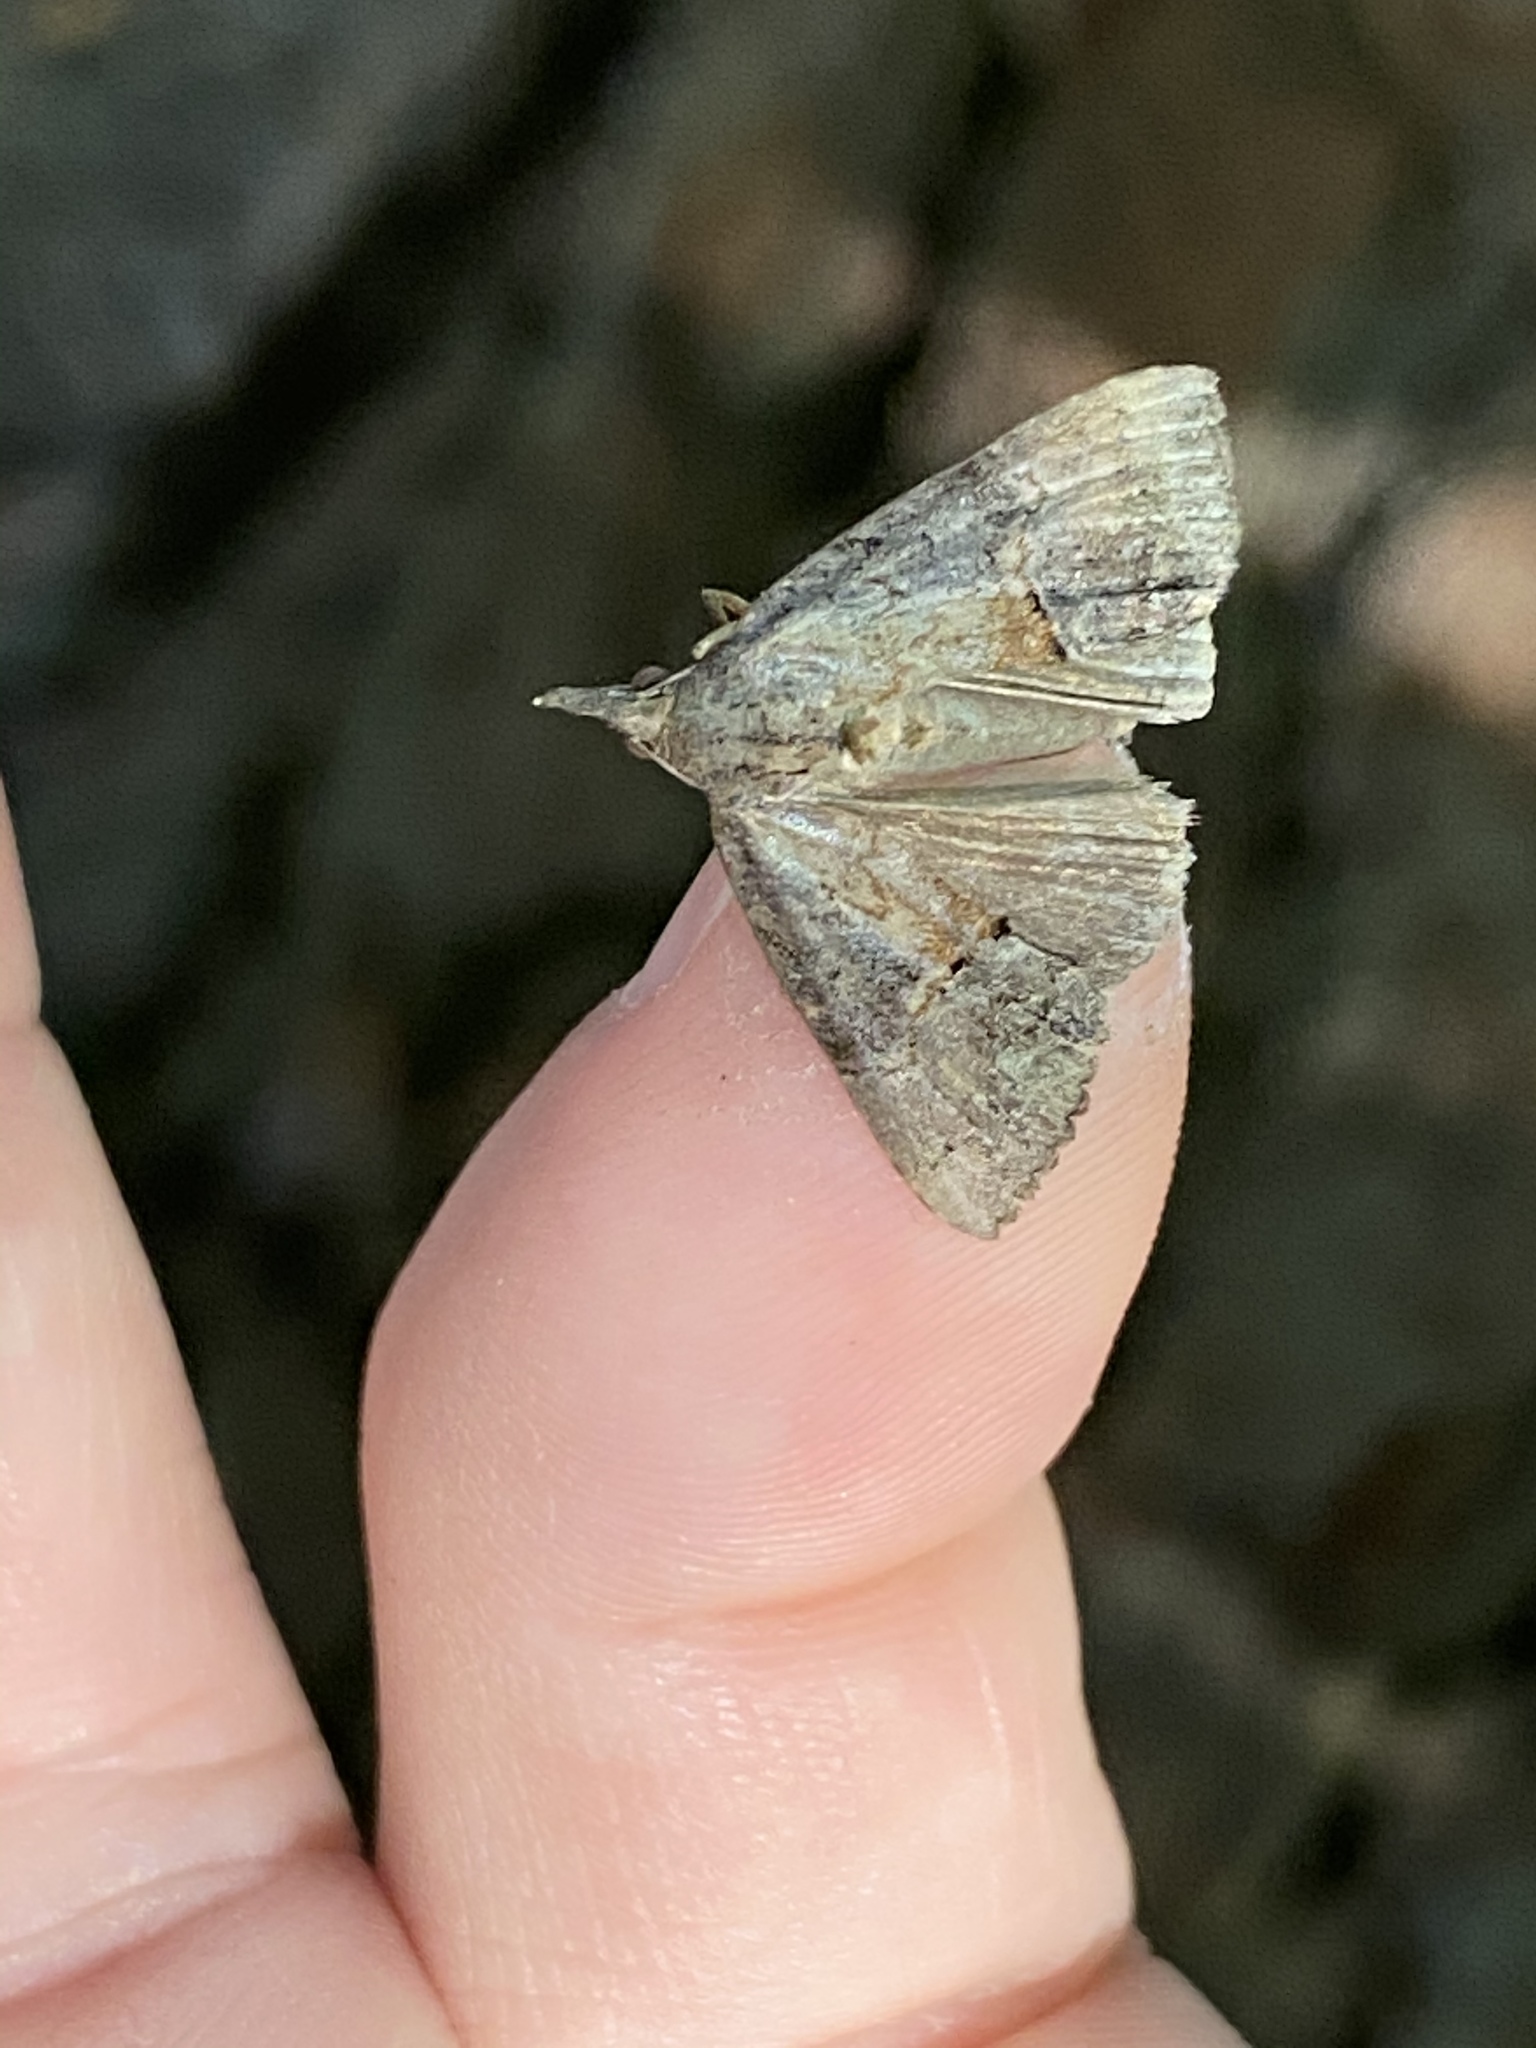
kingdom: Animalia
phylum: Arthropoda
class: Insecta
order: Lepidoptera
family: Erebidae
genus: Hypena
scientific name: Hypena scabra
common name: Green cloverworm
